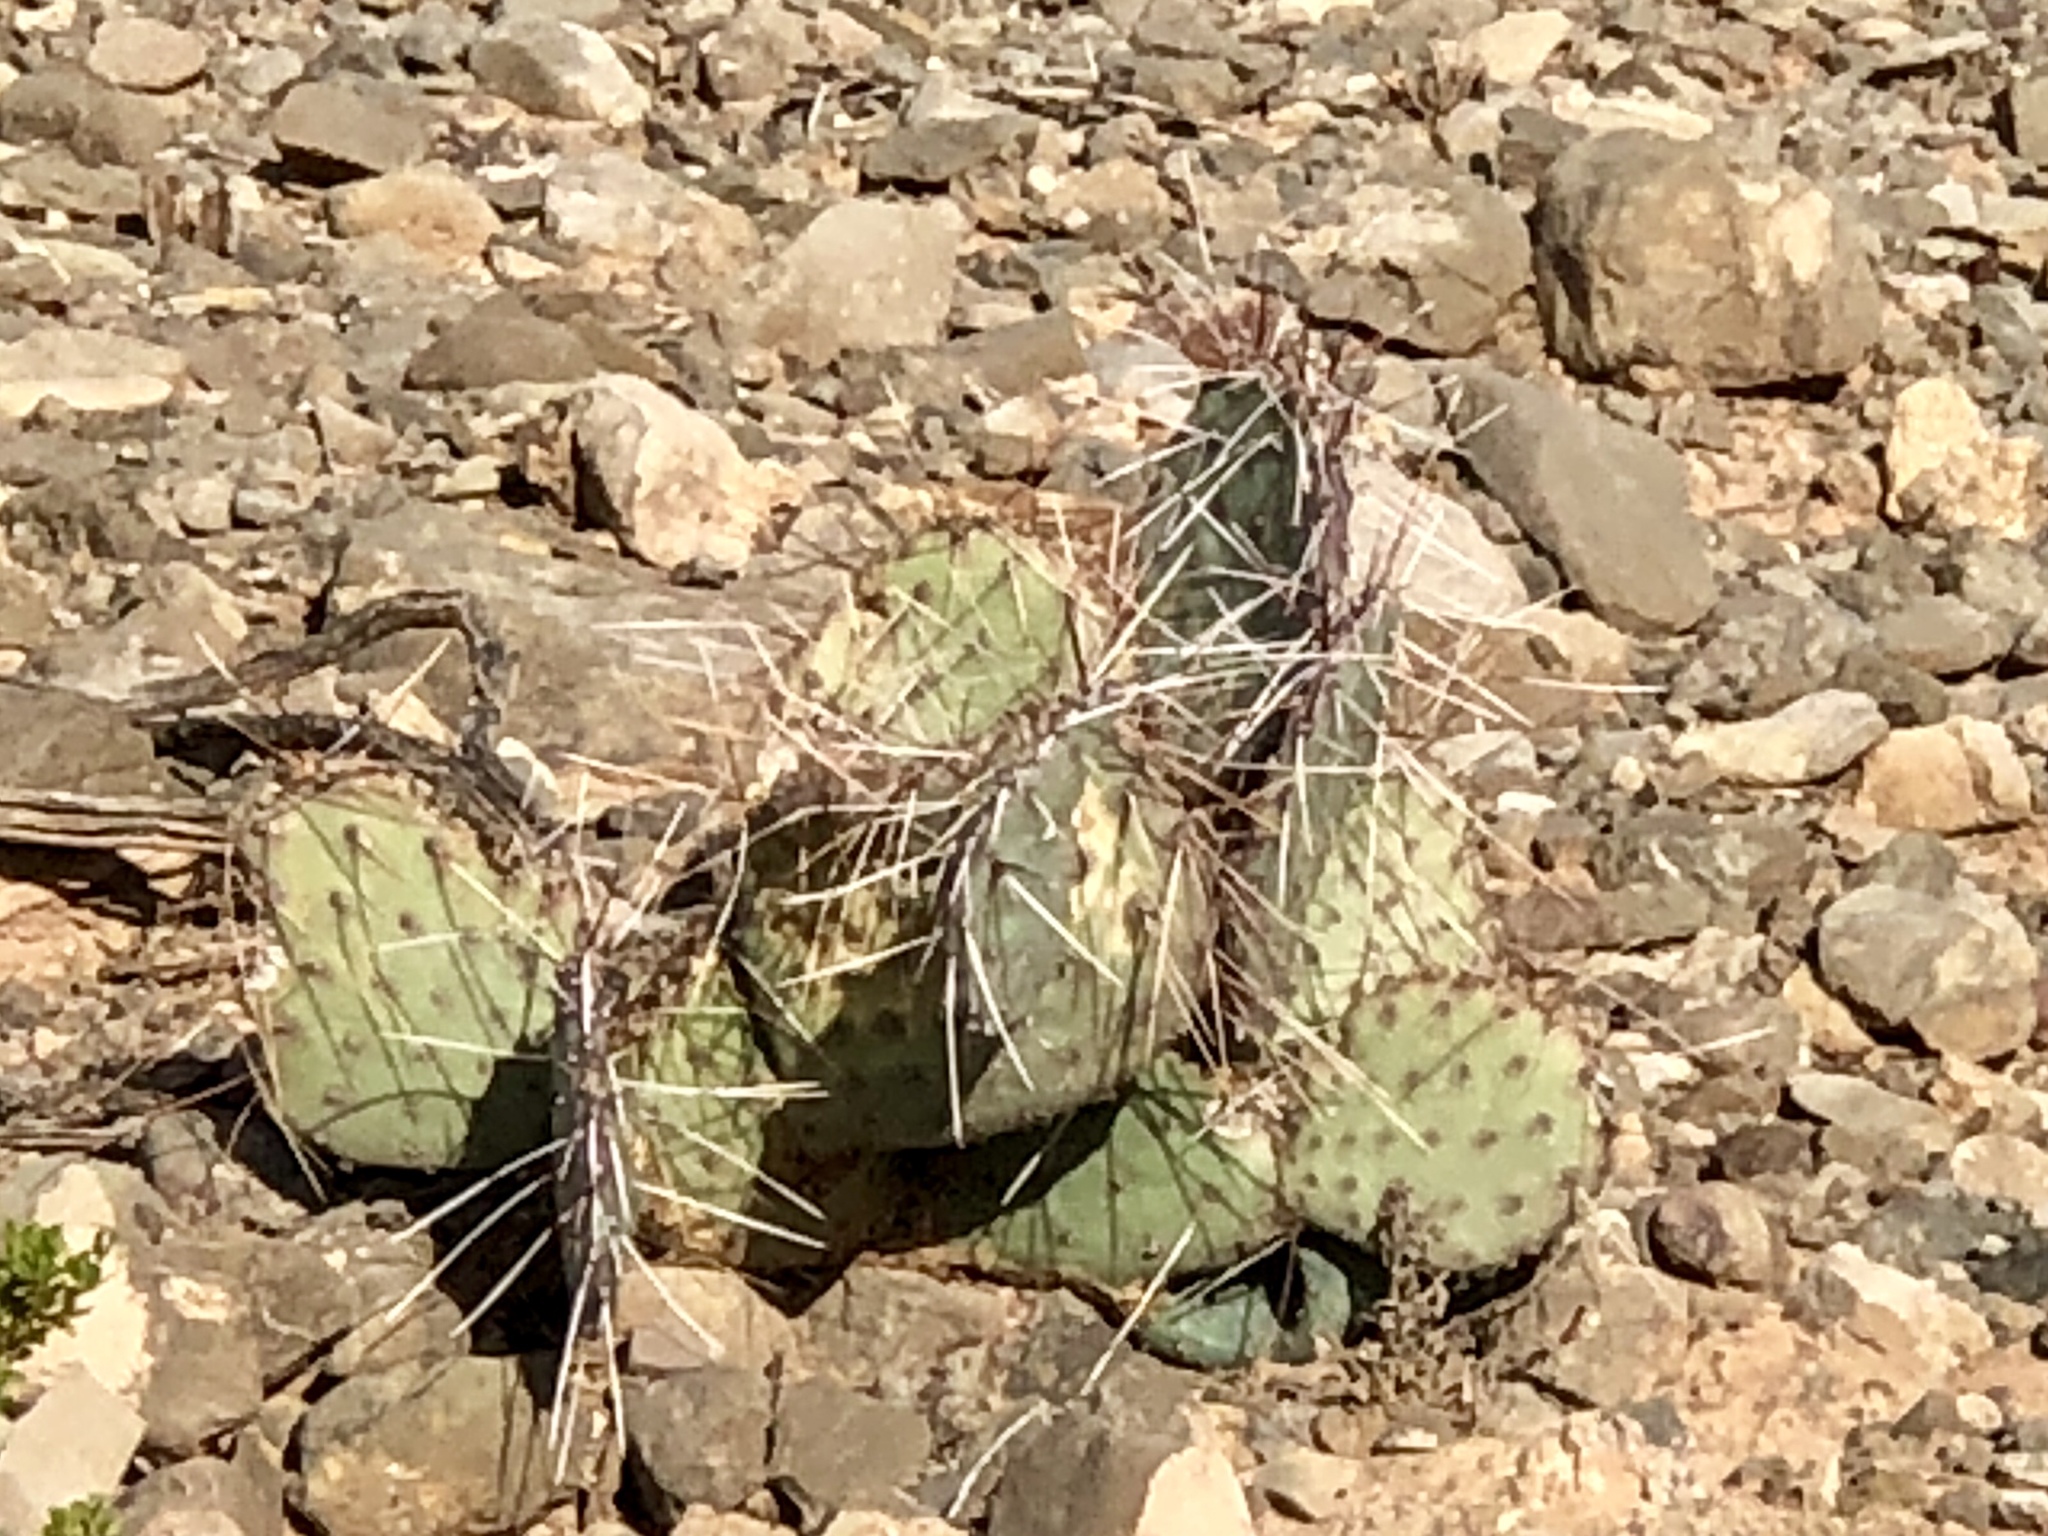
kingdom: Plantae
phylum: Tracheophyta
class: Magnoliopsida
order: Caryophyllales
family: Cactaceae
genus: Opuntia
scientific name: Opuntia phaeacantha
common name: New mexico prickly-pear
